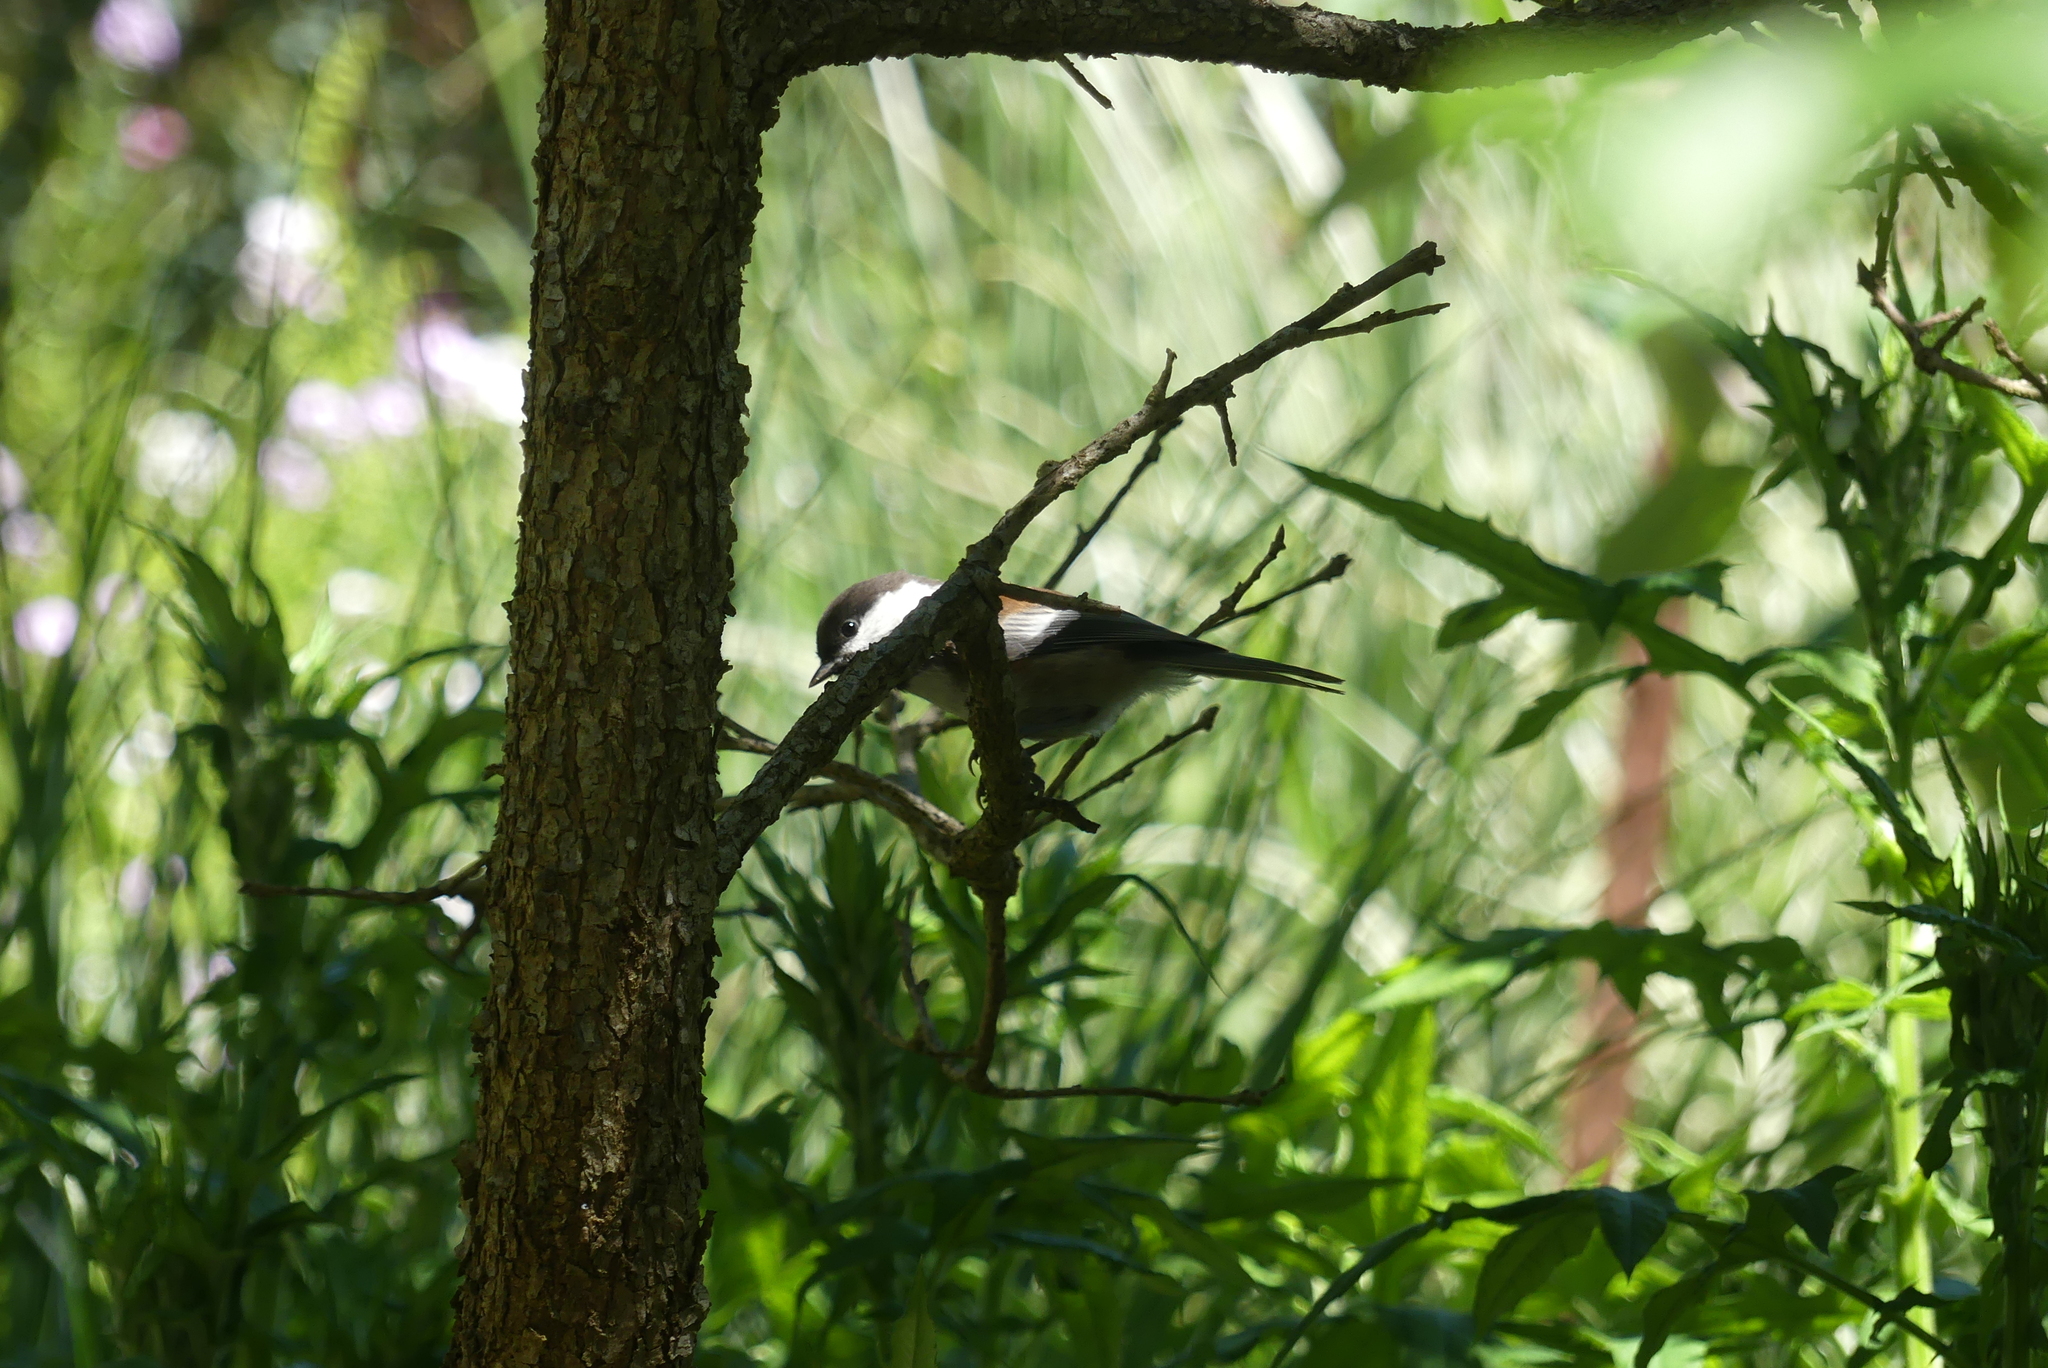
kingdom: Animalia
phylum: Chordata
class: Aves
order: Passeriformes
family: Paridae
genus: Poecile
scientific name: Poecile rufescens
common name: Chestnut-backed chickadee
